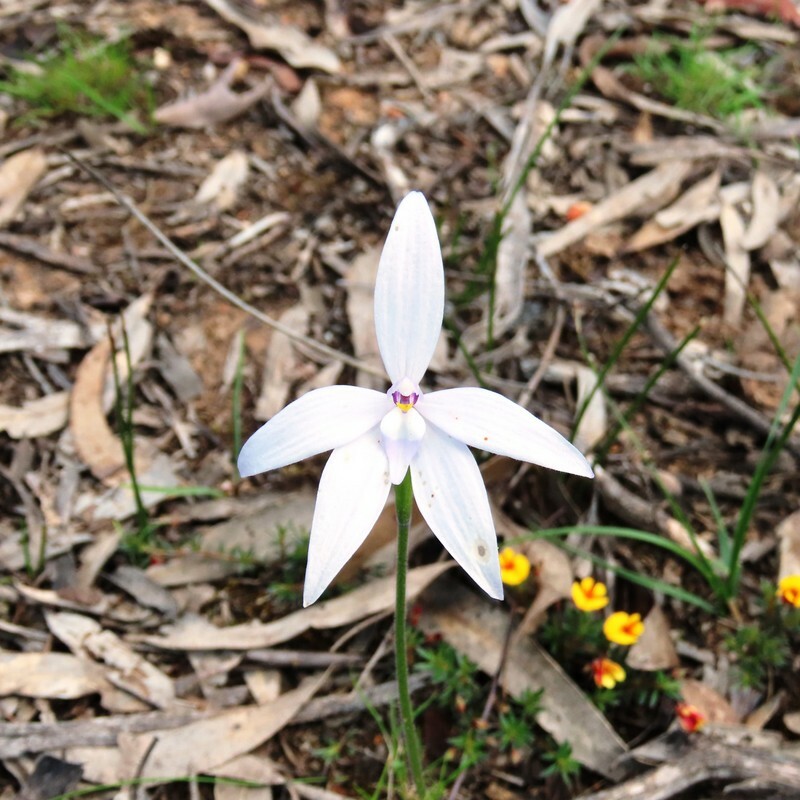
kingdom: Plantae
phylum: Tracheophyta
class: Liliopsida
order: Asparagales
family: Orchidaceae
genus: Caladenia
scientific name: Caladenia major
